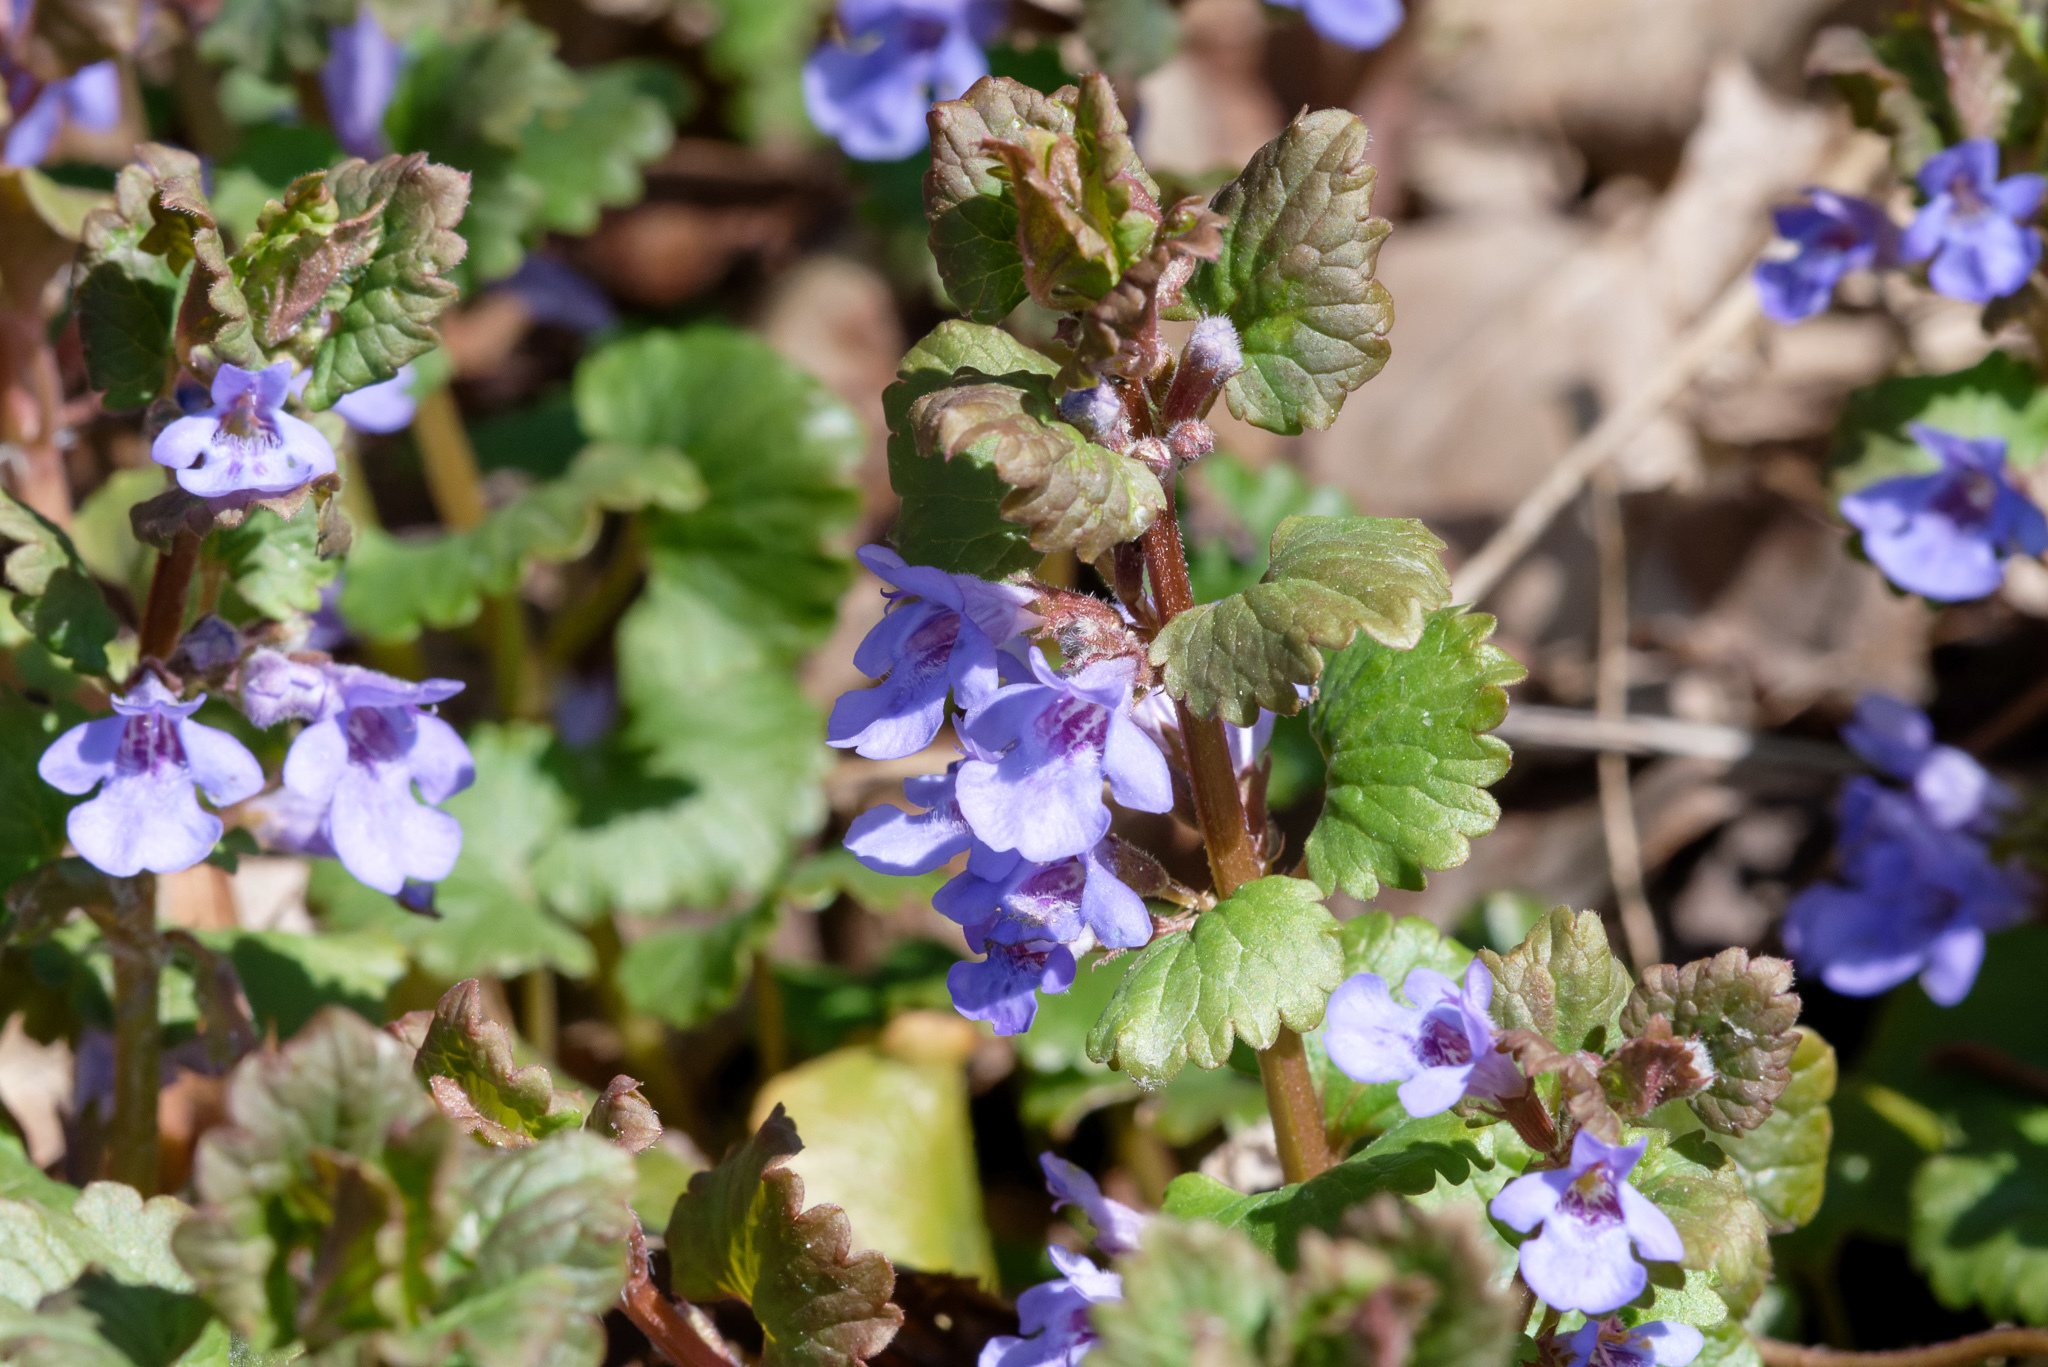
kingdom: Plantae
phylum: Tracheophyta
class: Magnoliopsida
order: Lamiales
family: Lamiaceae
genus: Glechoma
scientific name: Glechoma hederacea
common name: Ground ivy
